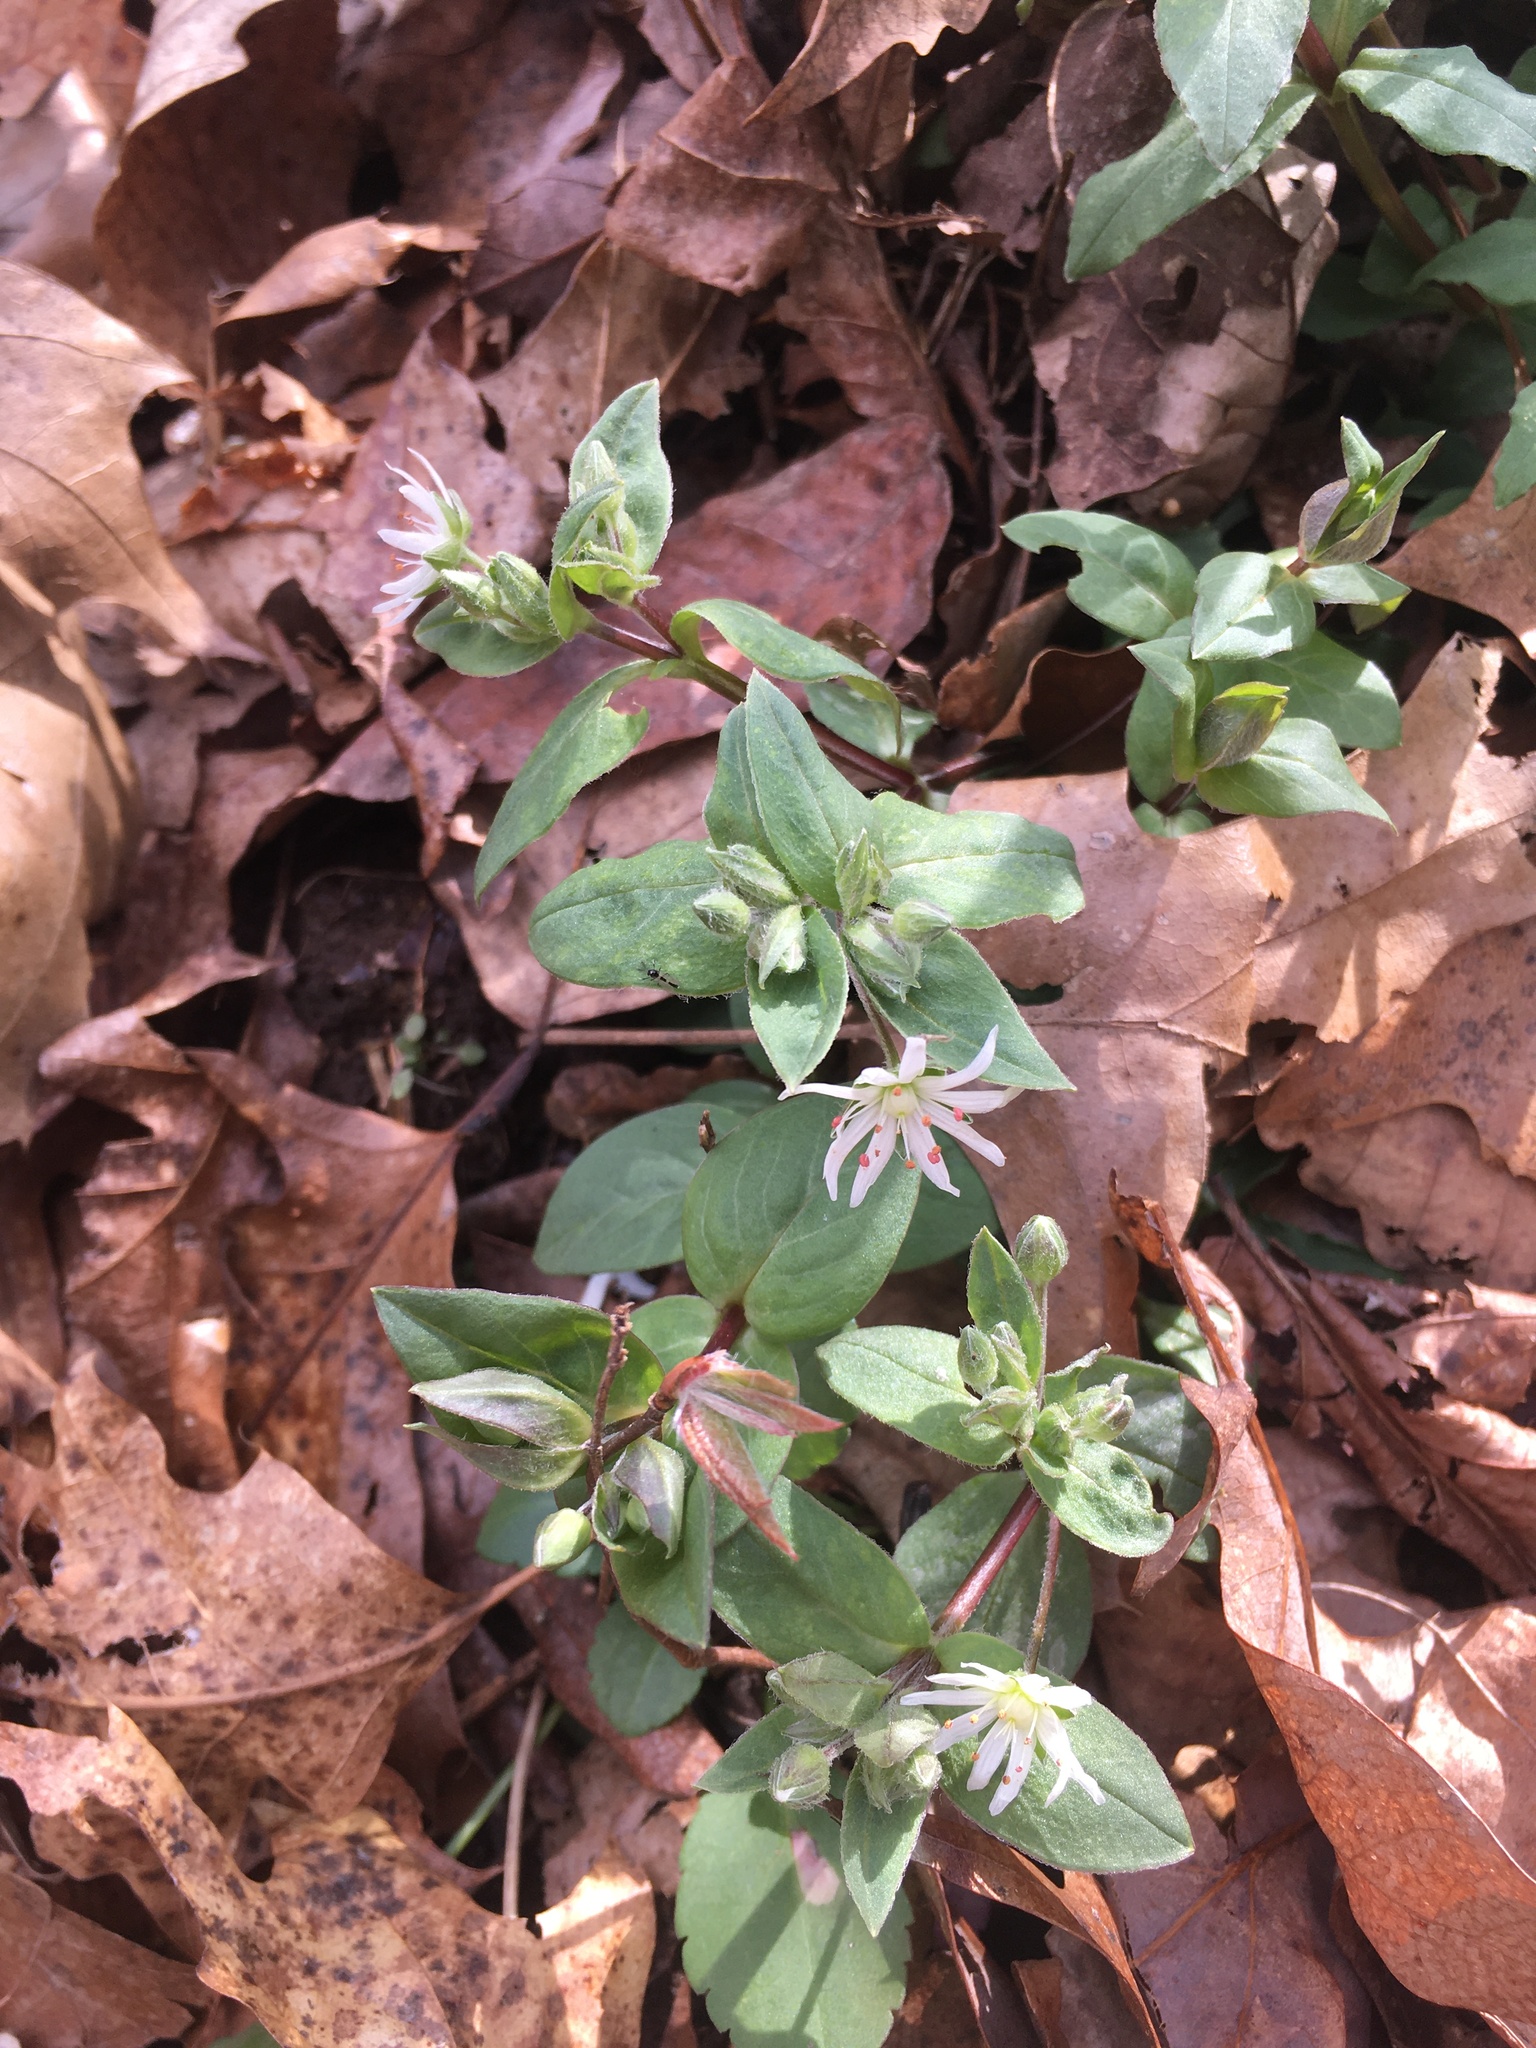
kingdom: Plantae
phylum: Tracheophyta
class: Magnoliopsida
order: Caryophyllales
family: Caryophyllaceae
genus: Stellaria
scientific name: Stellaria pubera
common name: Star chickweed
